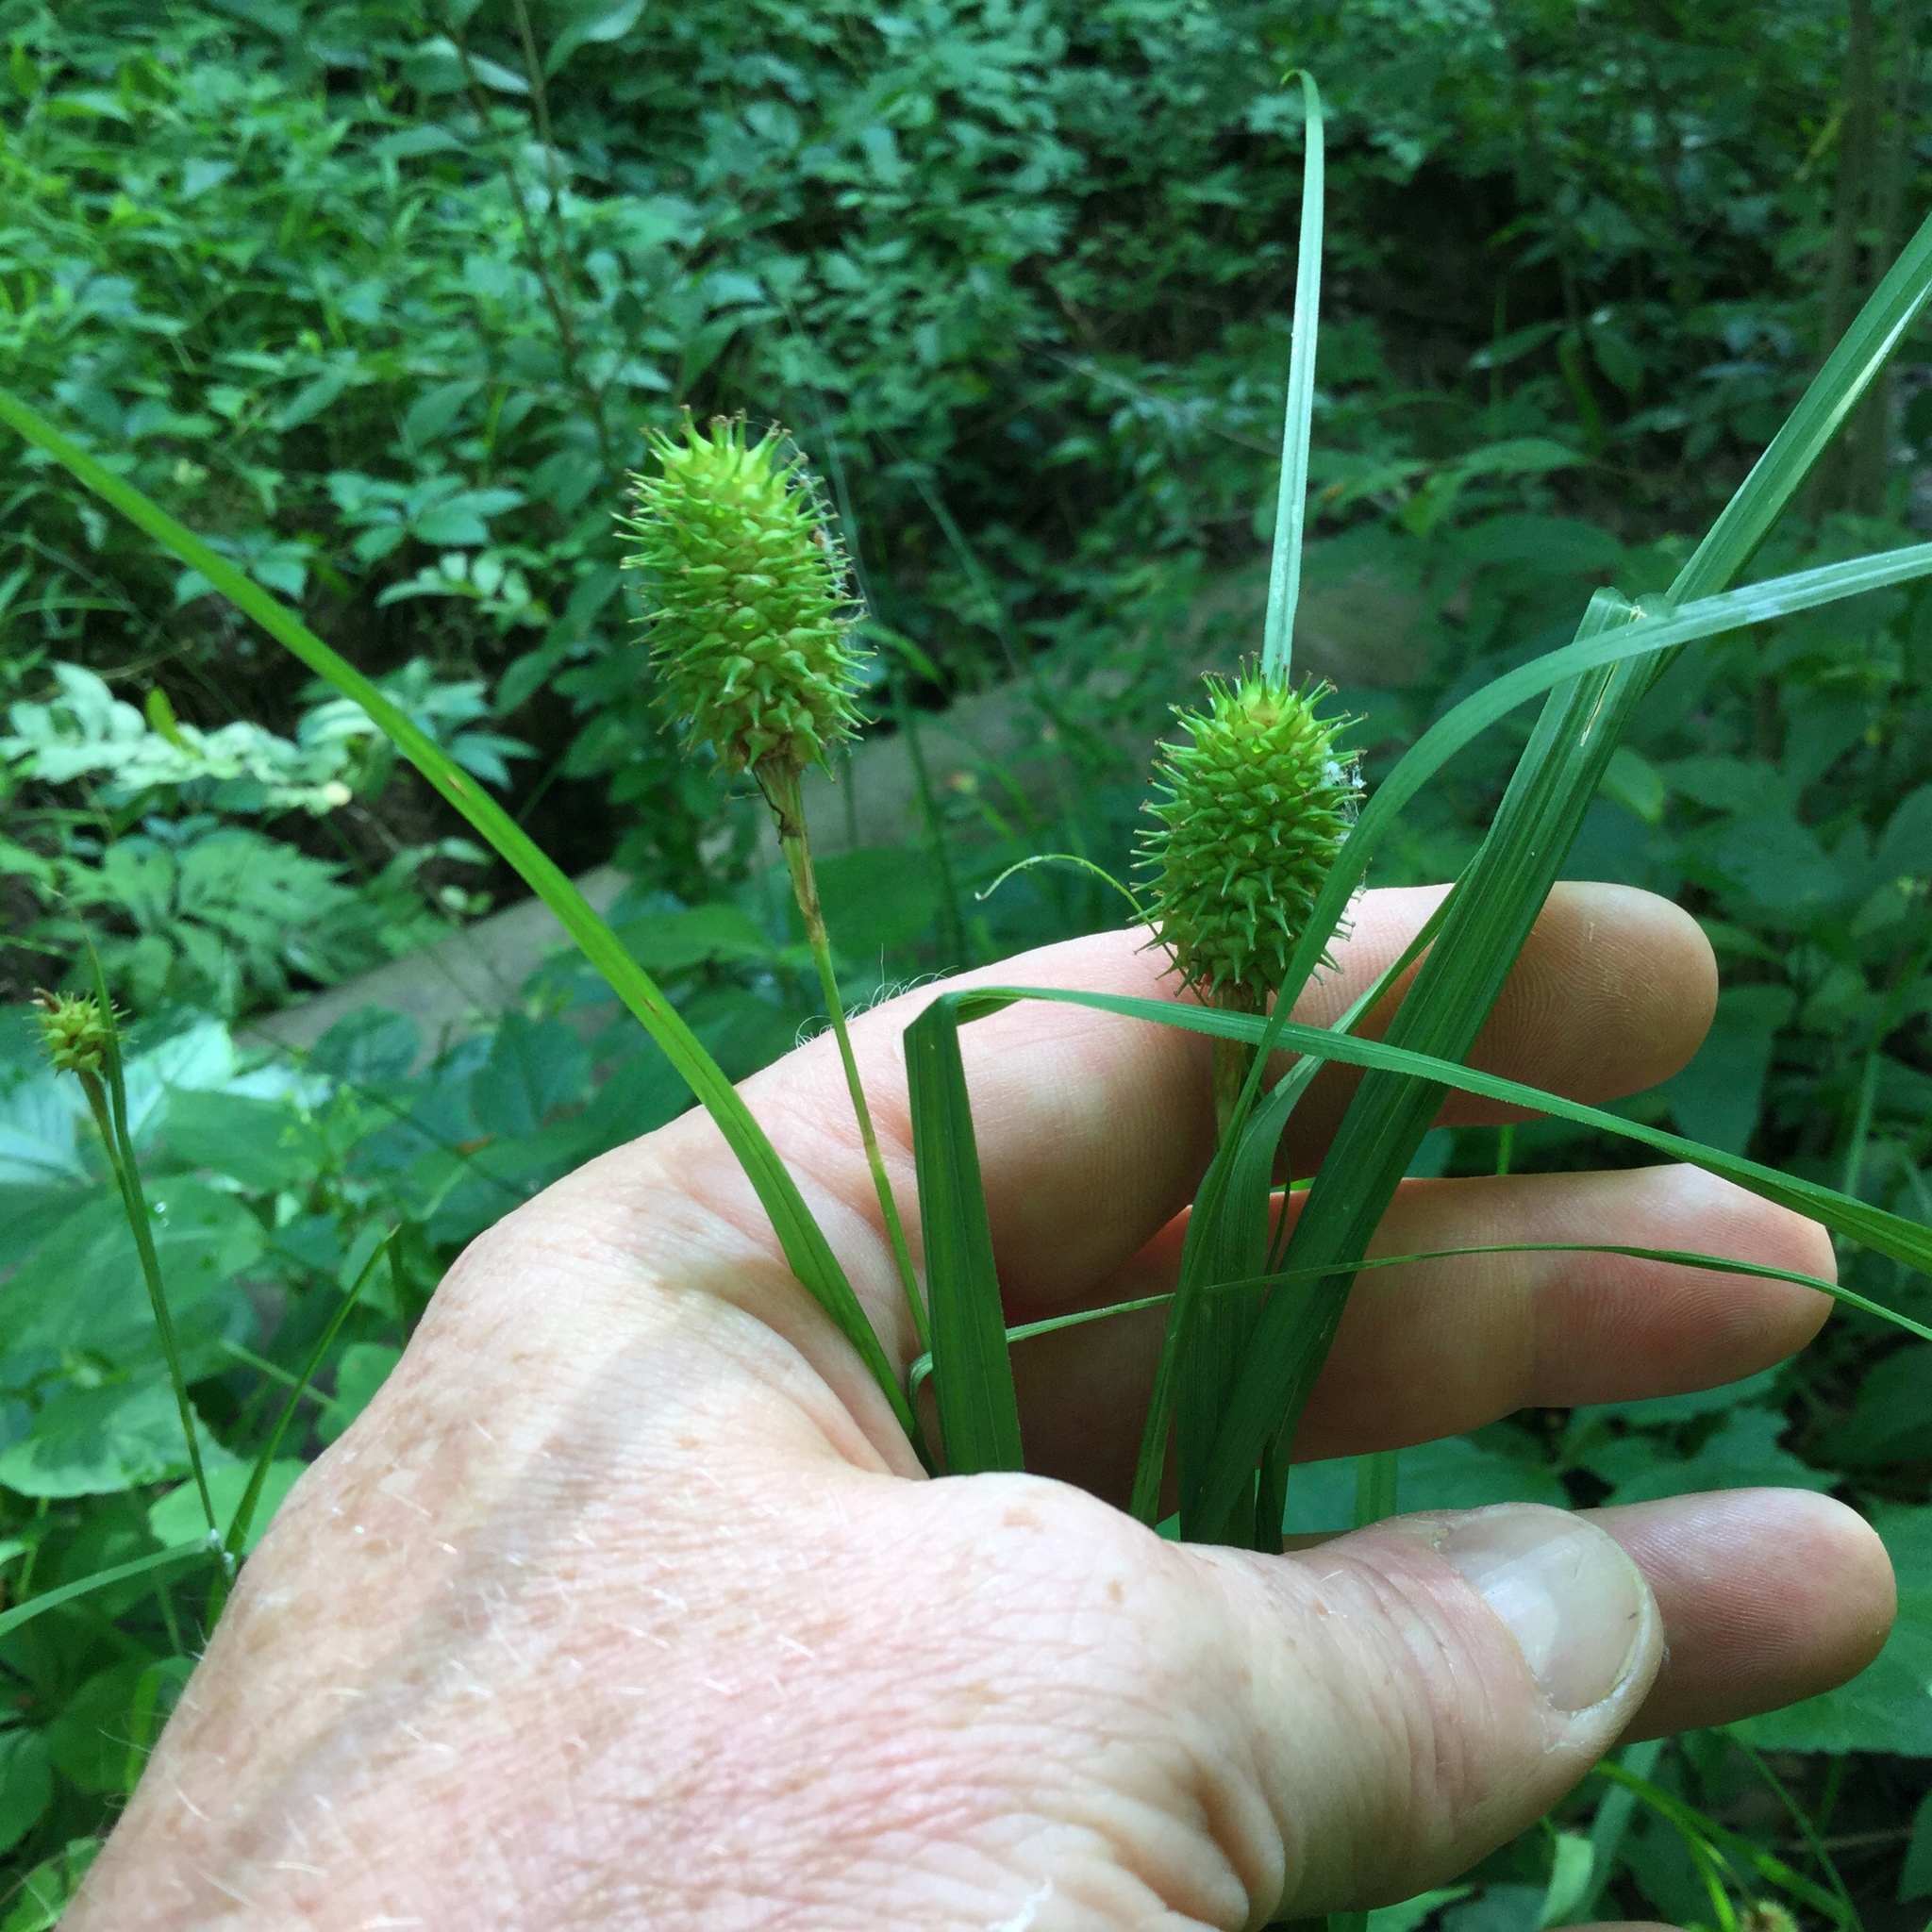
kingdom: Plantae
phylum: Tracheophyta
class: Liliopsida
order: Poales
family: Cyperaceae
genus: Carex
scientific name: Carex squarrosa
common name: Narrow-leaved cattail sedge
